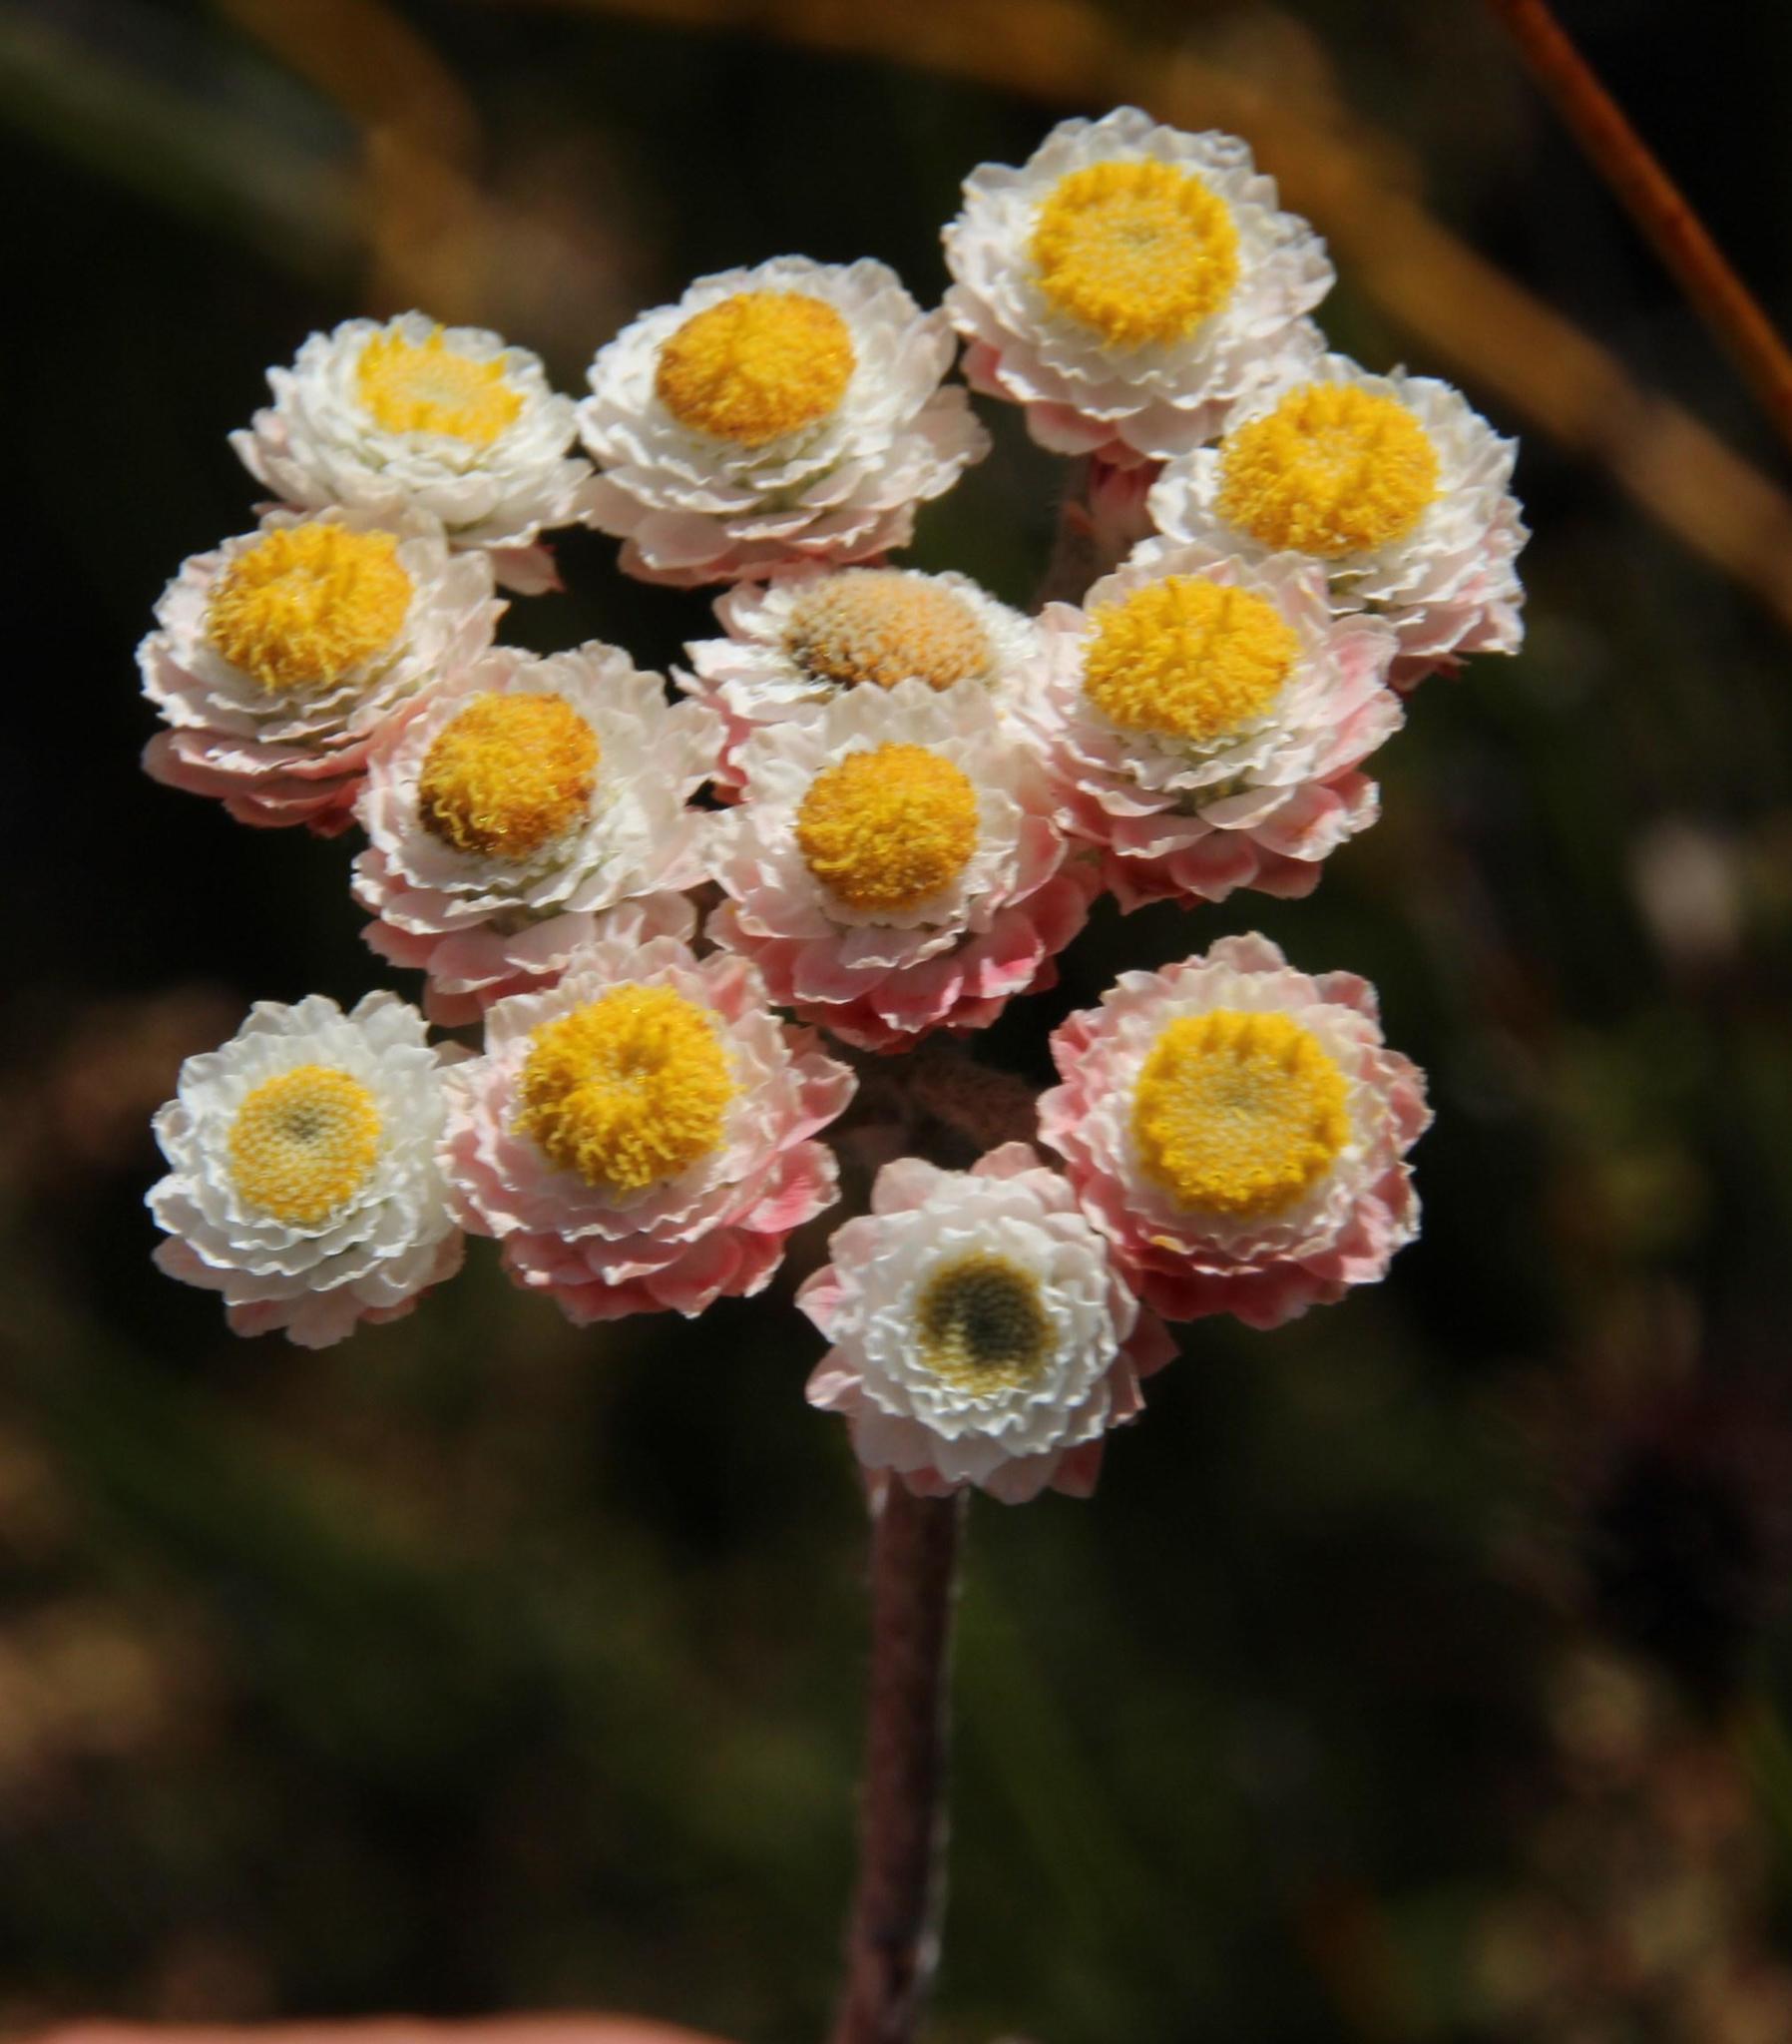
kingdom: Plantae
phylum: Tracheophyta
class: Magnoliopsida
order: Asterales
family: Asteraceae
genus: Helichrysum
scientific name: Helichrysum felinum
